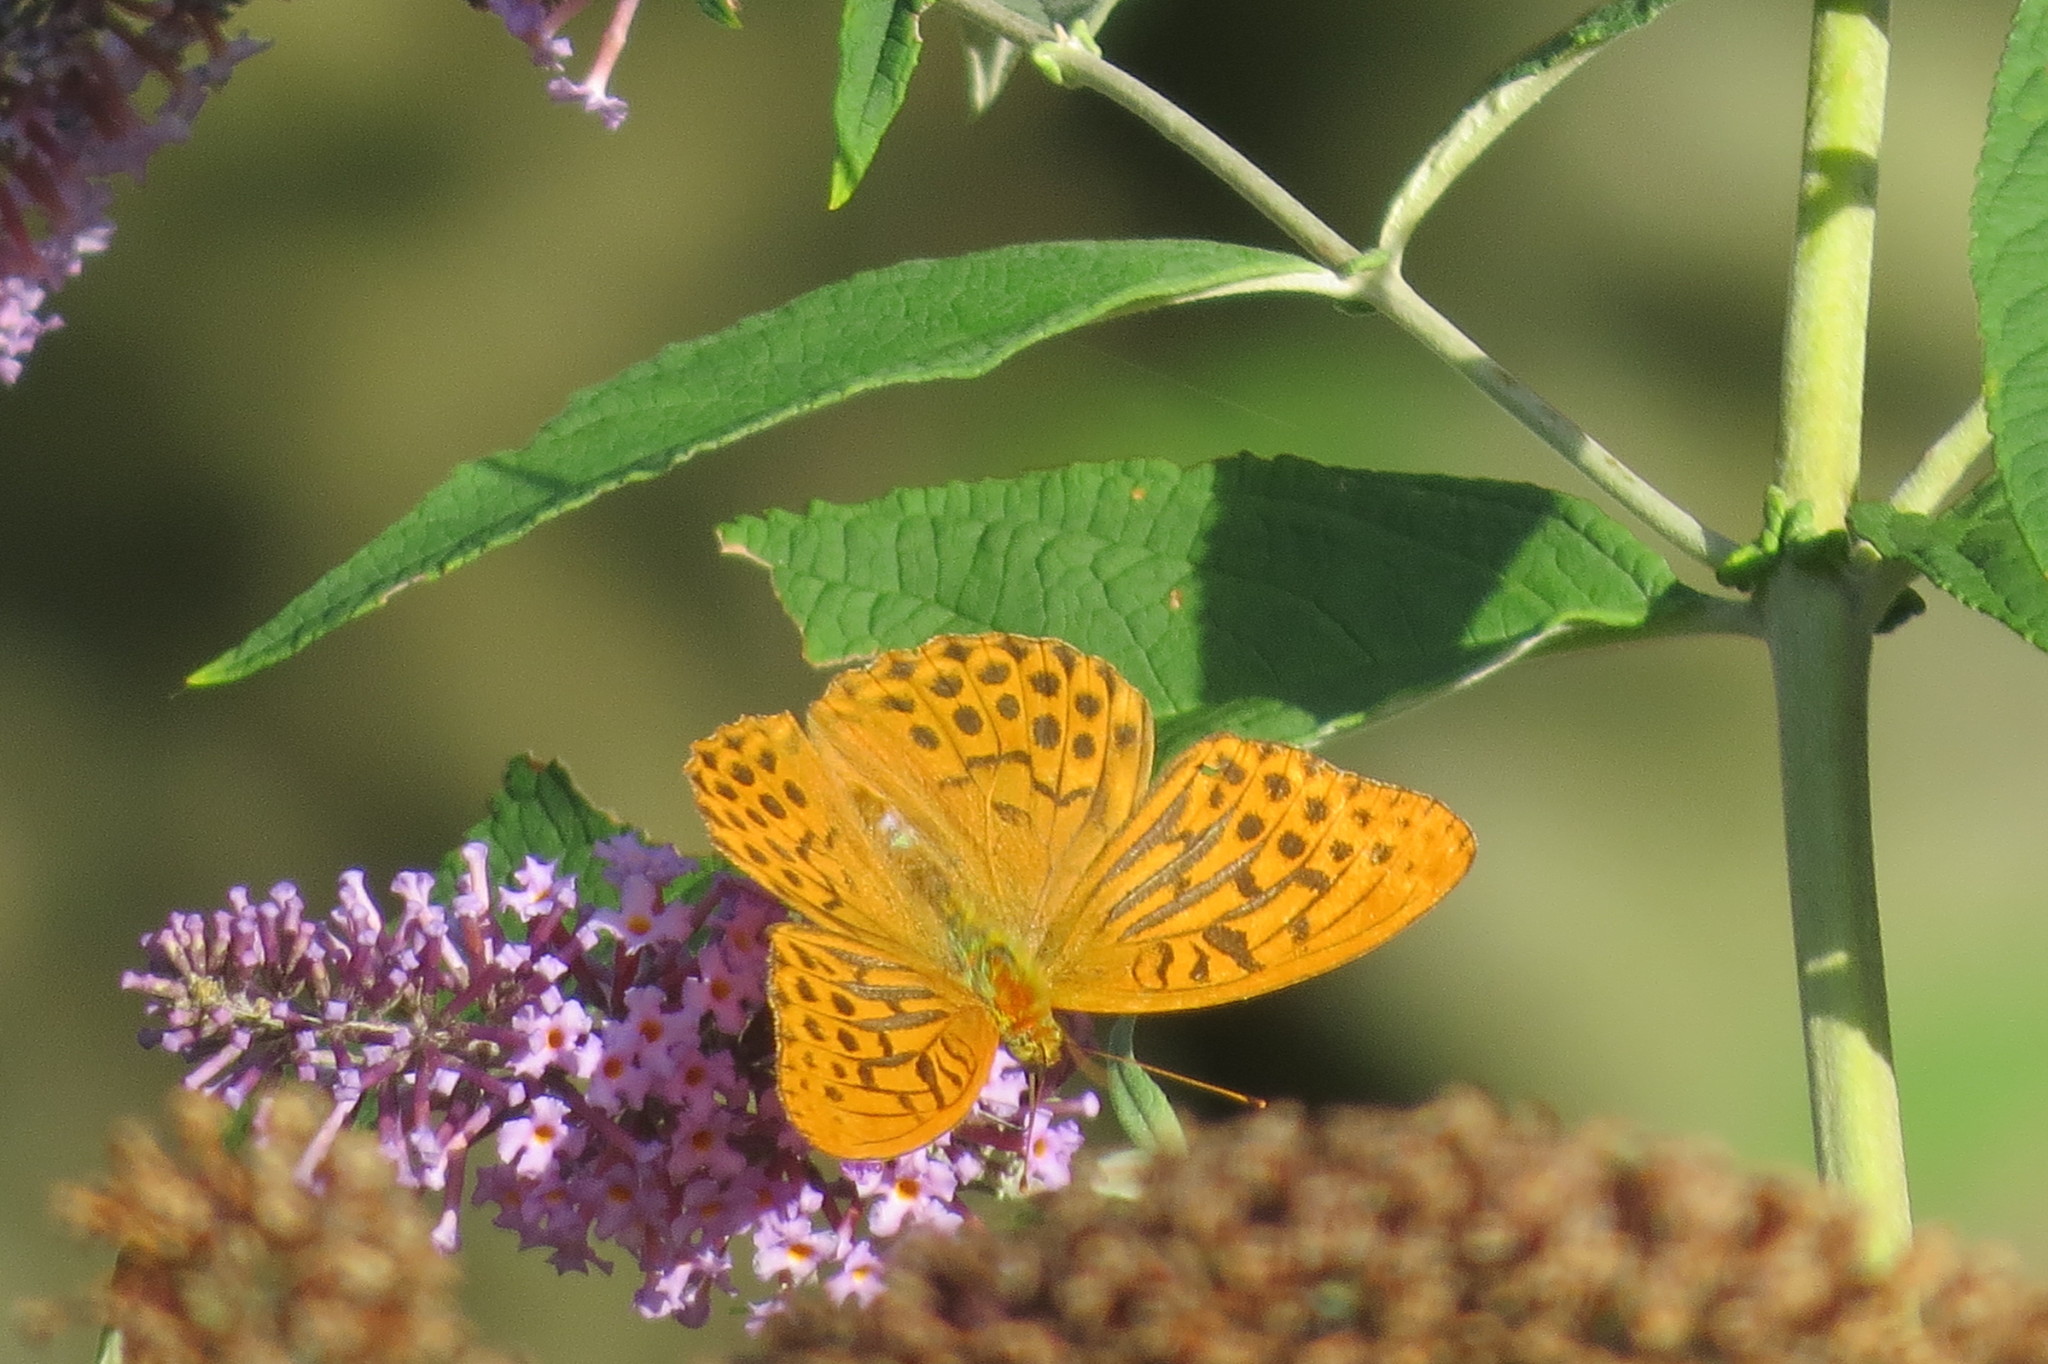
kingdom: Animalia
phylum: Arthropoda
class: Insecta
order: Lepidoptera
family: Nymphalidae
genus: Argynnis
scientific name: Argynnis paphia
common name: Silver-washed fritillary
